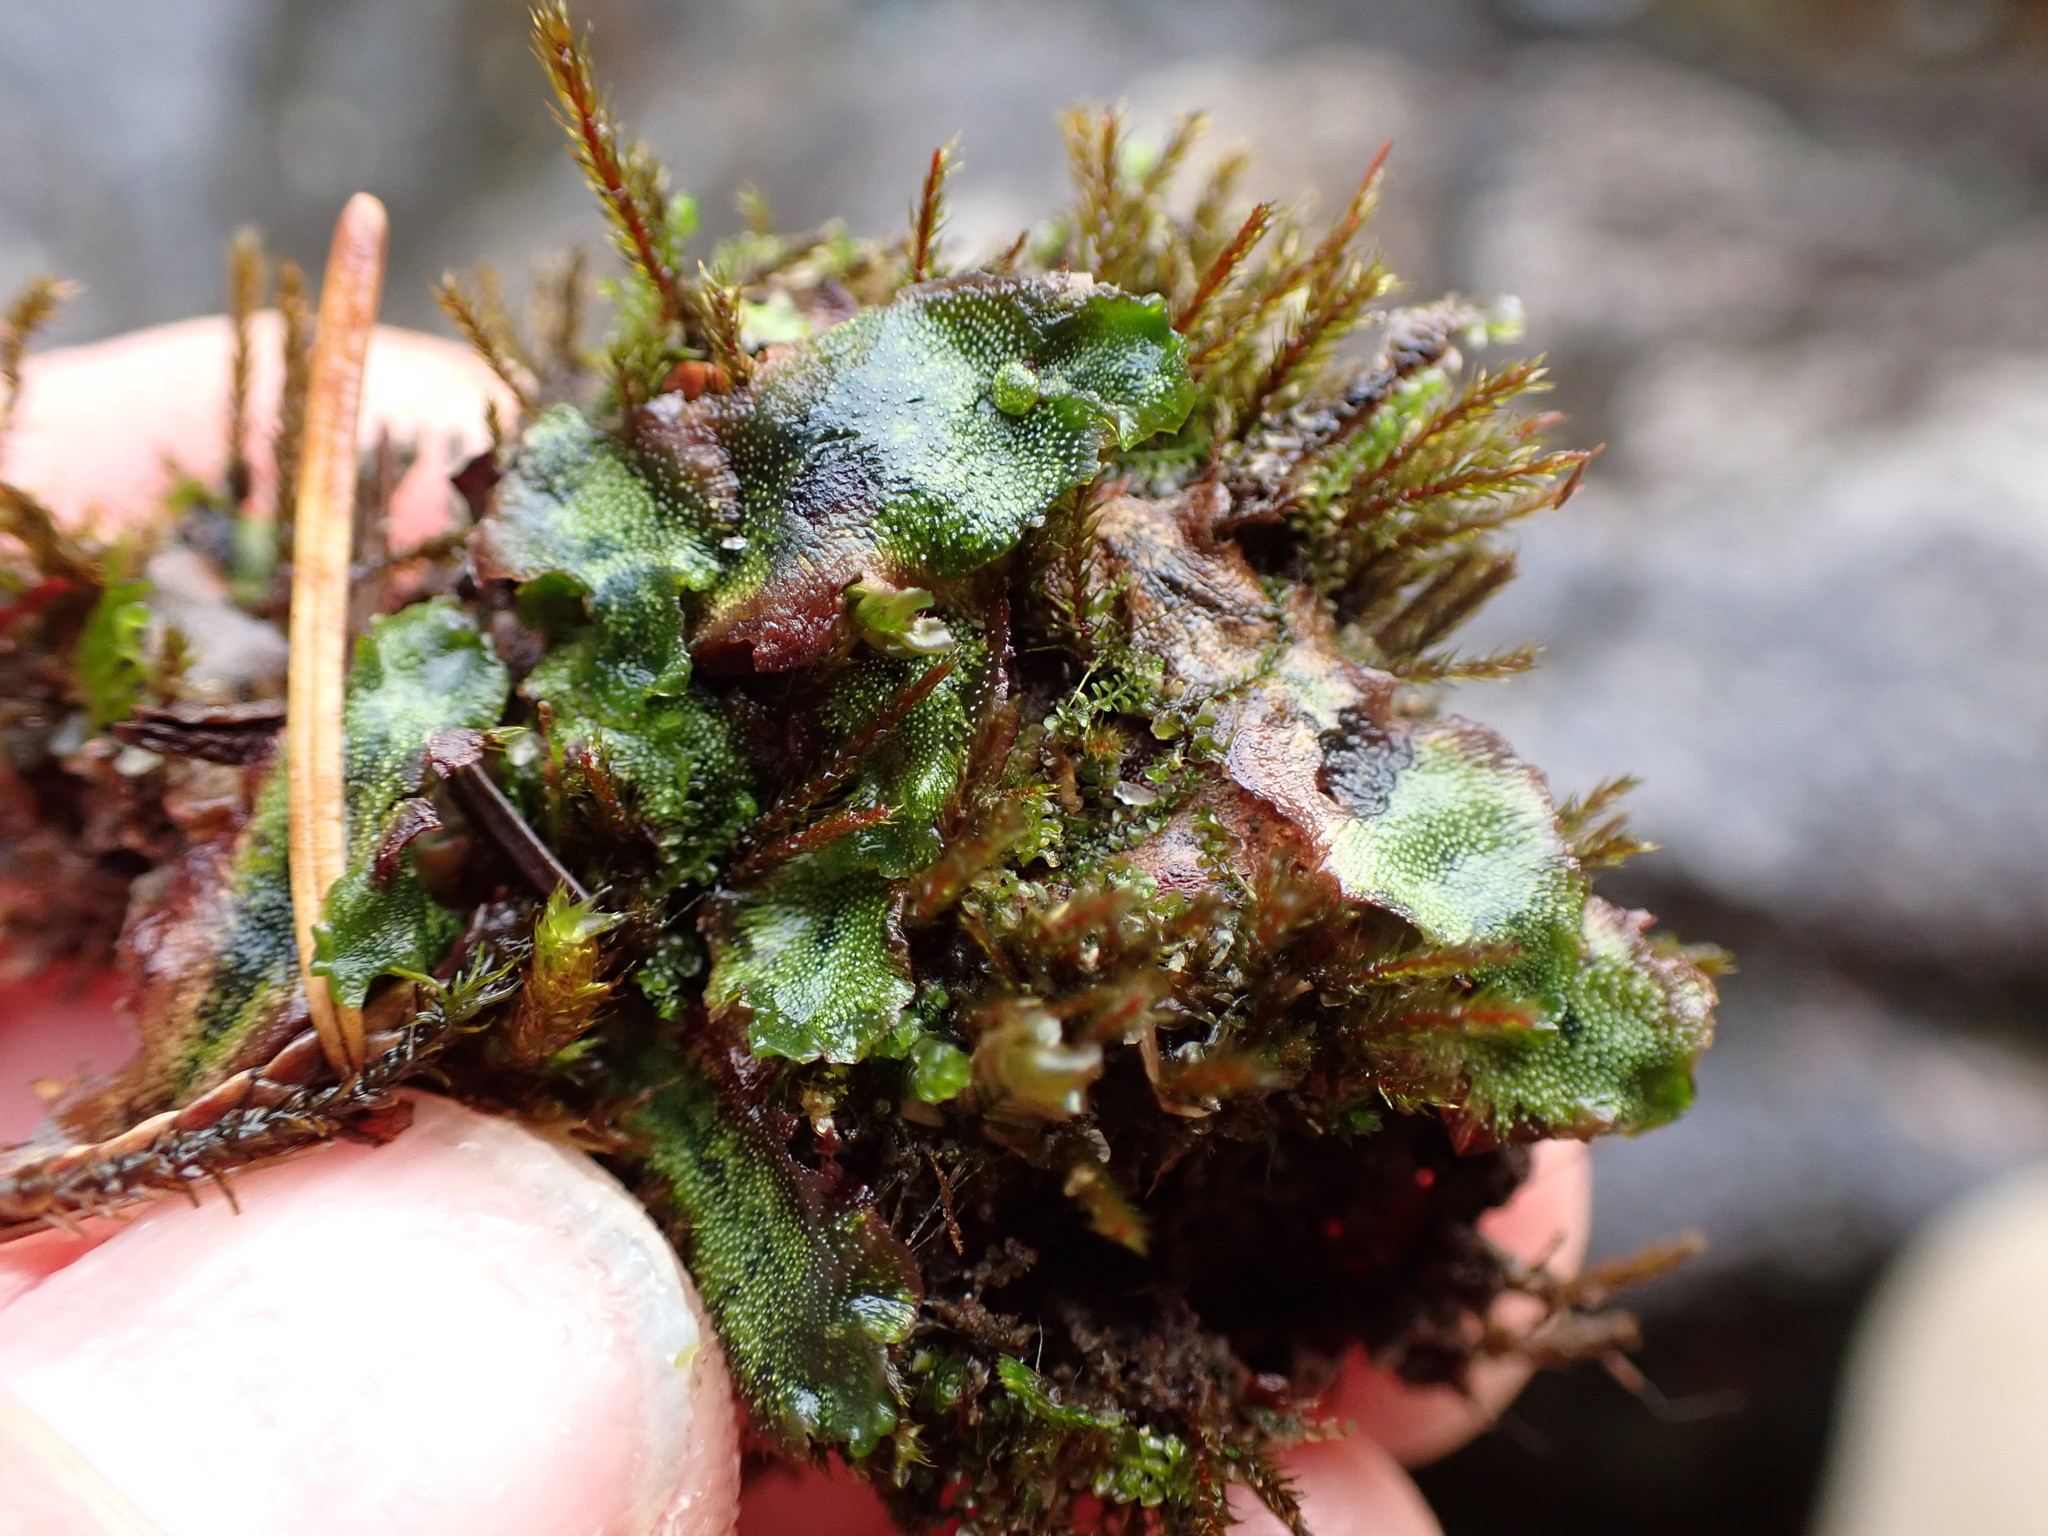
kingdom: Plantae
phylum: Marchantiophyta
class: Marchantiopsida
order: Marchantiales
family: Marchantiaceae
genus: Marchantia
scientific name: Marchantia quadrata
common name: Narrow mushroom-headed liverwort
